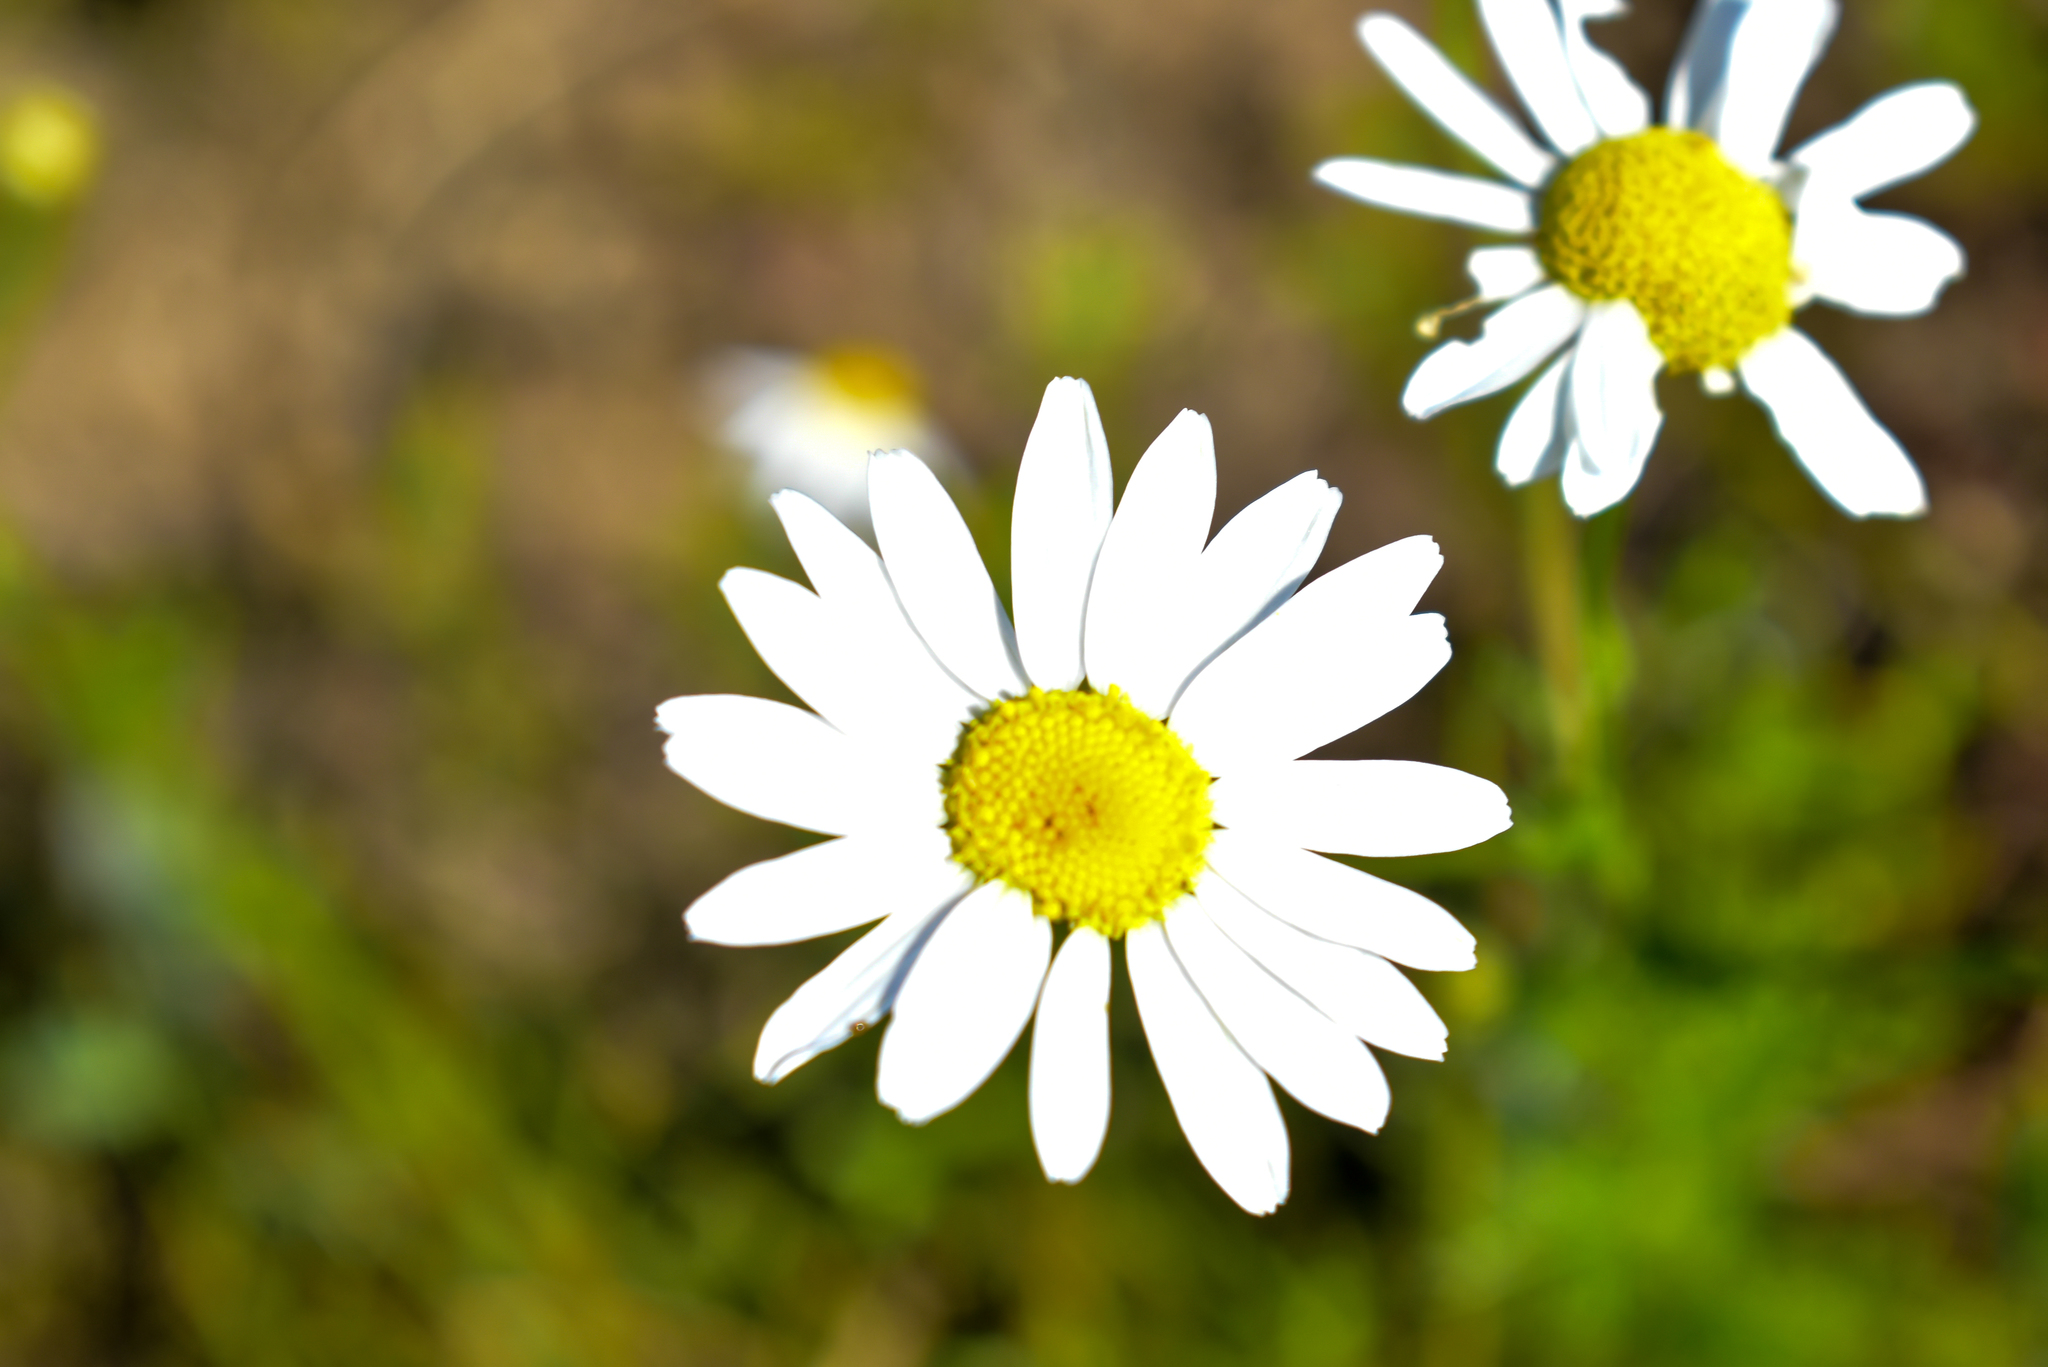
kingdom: Plantae
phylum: Tracheophyta
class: Magnoliopsida
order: Asterales
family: Asteraceae
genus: Tripleurospermum
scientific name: Tripleurospermum inodorum
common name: Scentless mayweed
